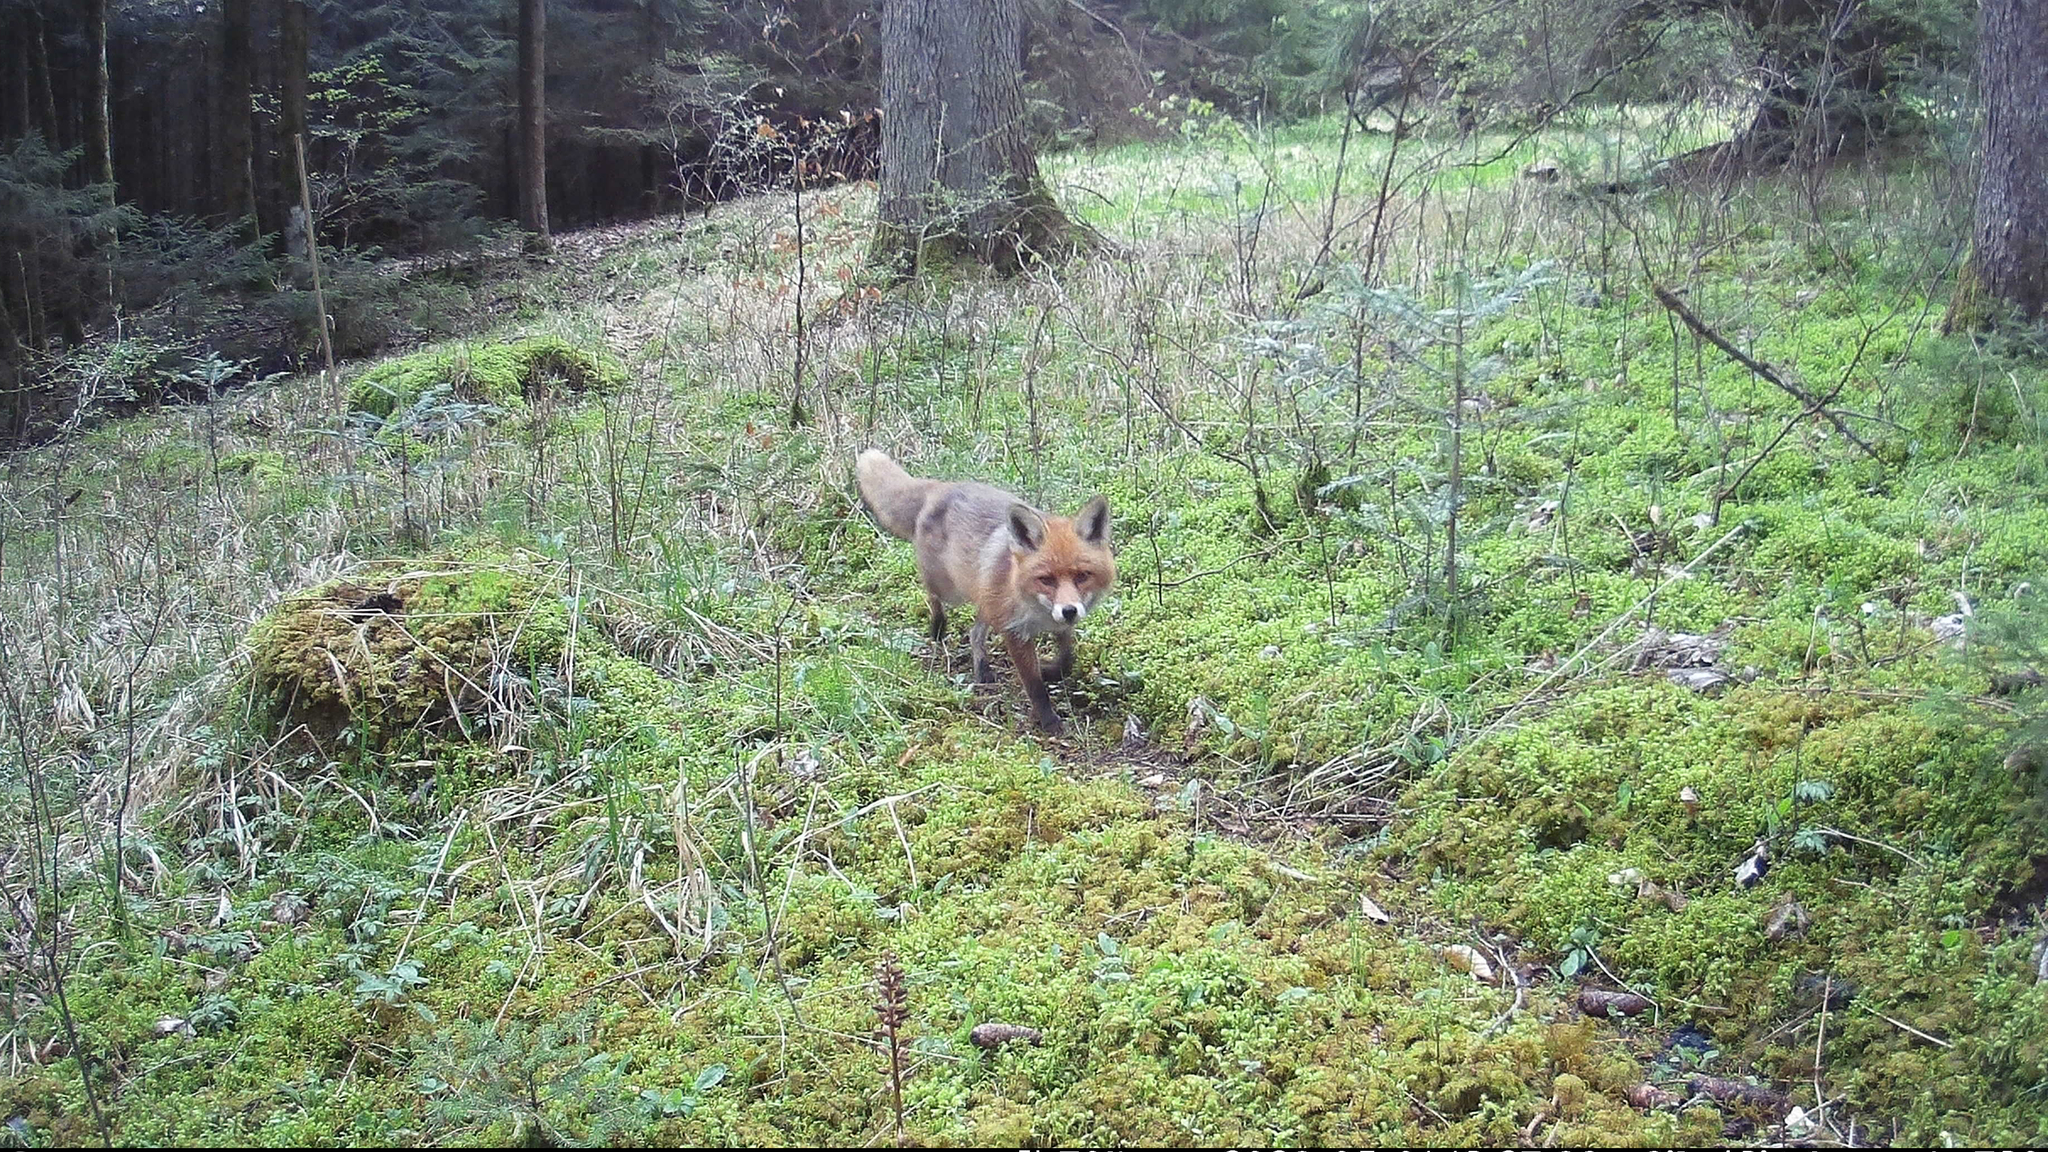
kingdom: Animalia
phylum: Chordata
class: Mammalia
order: Carnivora
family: Canidae
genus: Vulpes
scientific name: Vulpes vulpes
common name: Red fox
